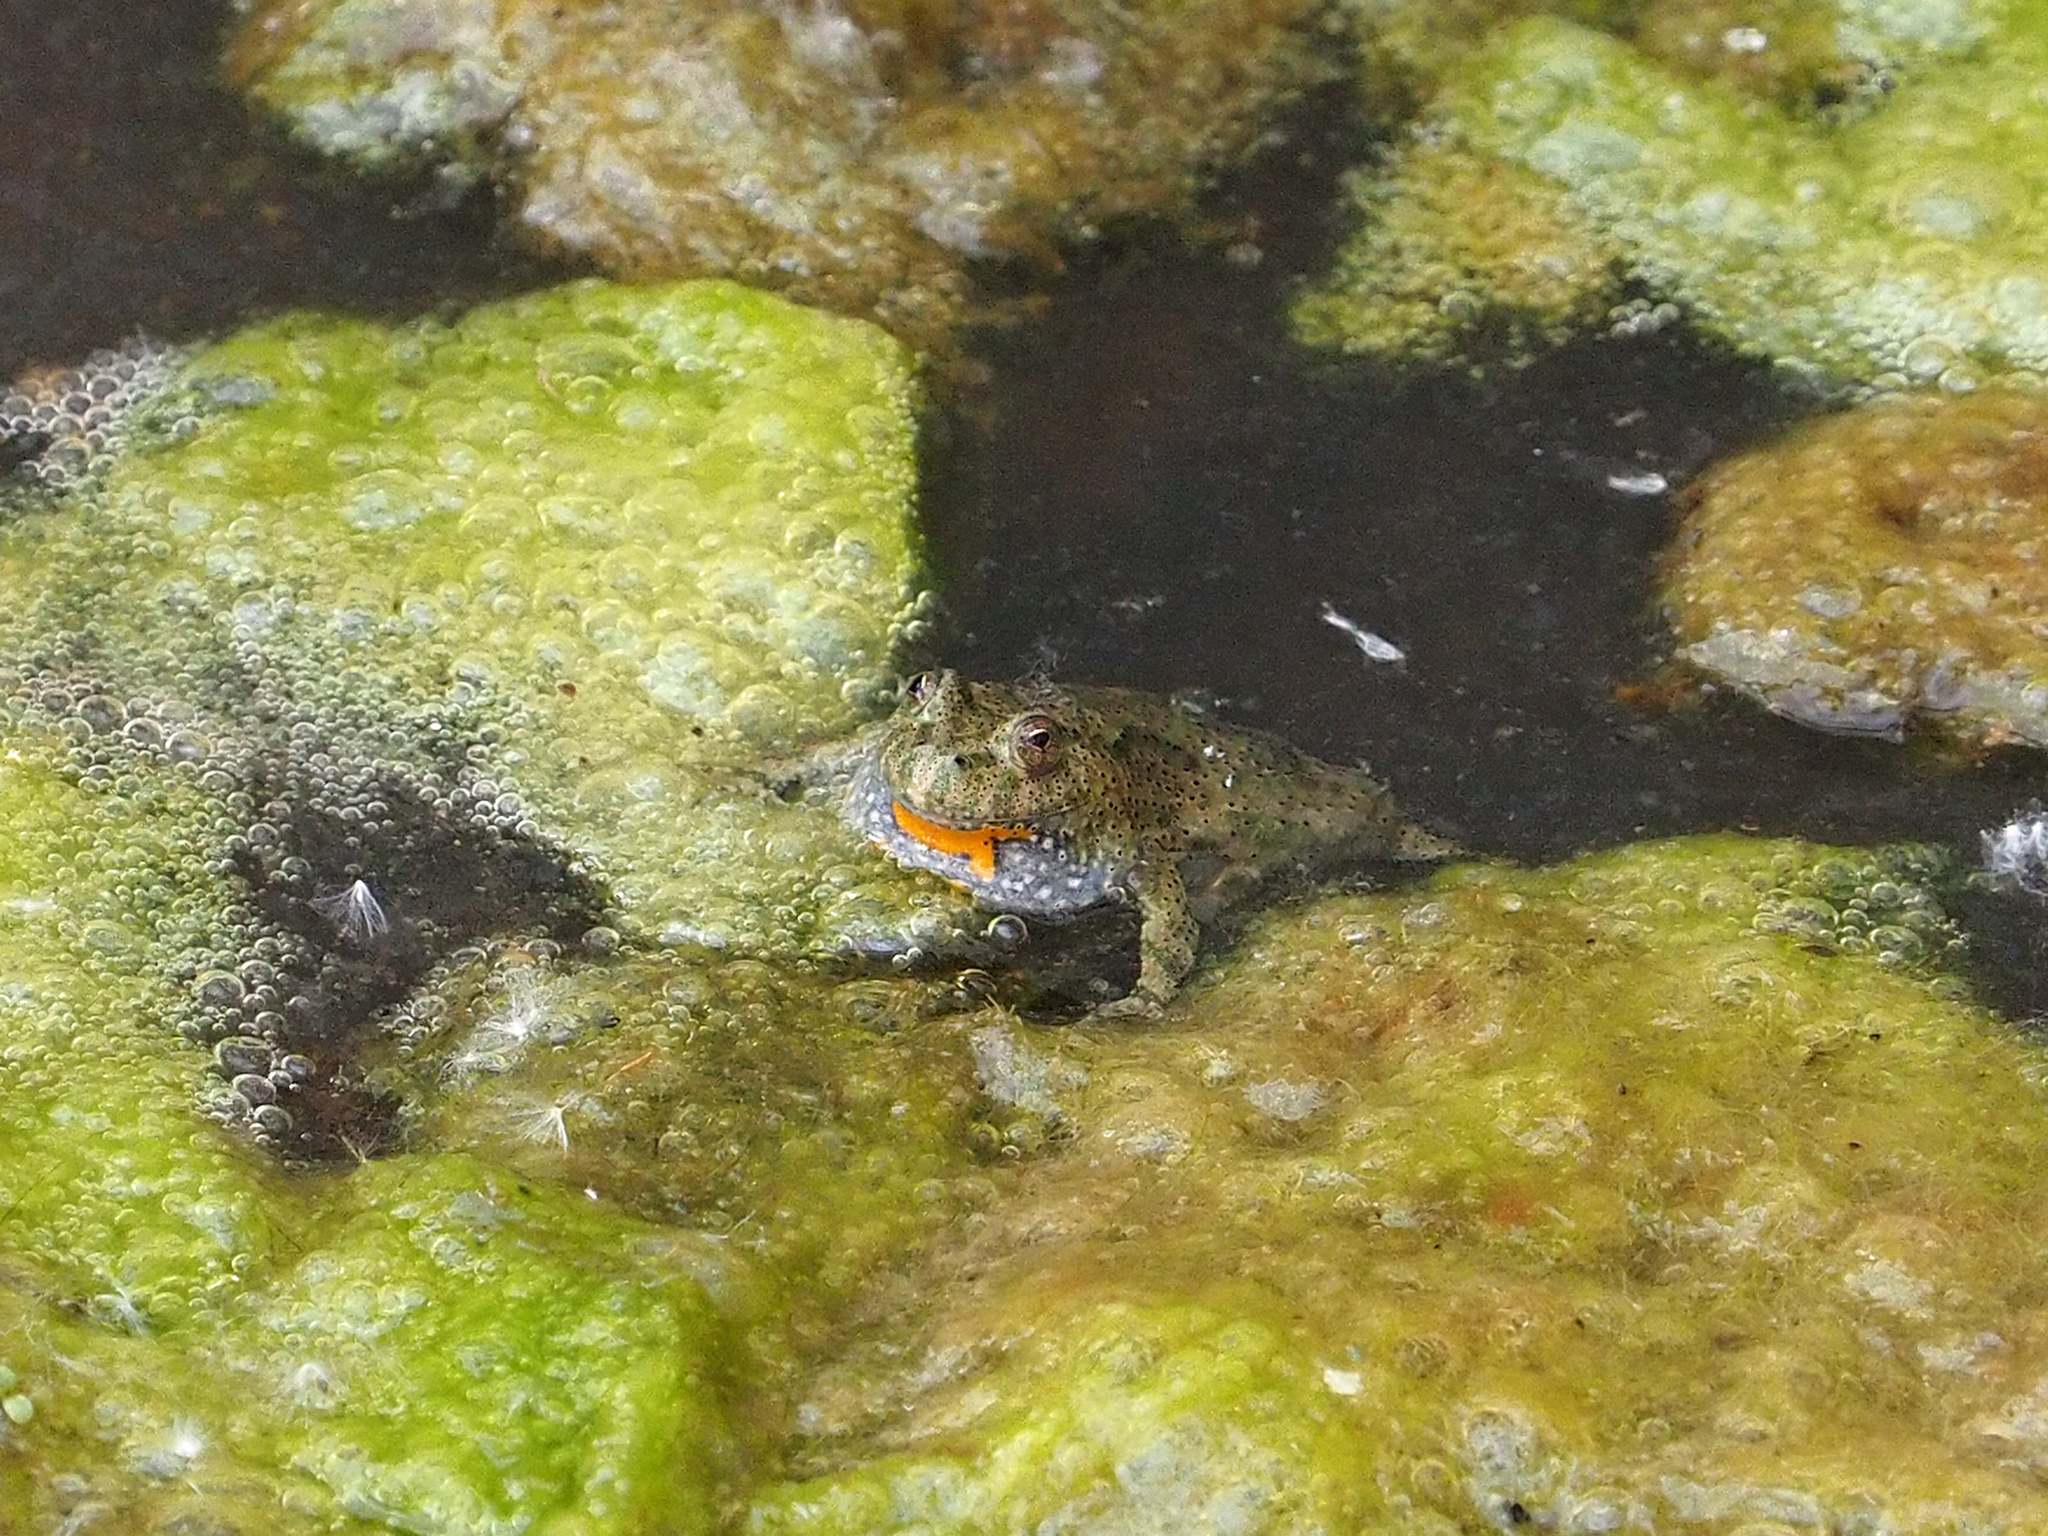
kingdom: Animalia
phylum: Chordata
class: Amphibia
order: Anura
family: Bombinatoridae
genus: Bombina
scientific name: Bombina bombina
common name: Fire-bellied toad
